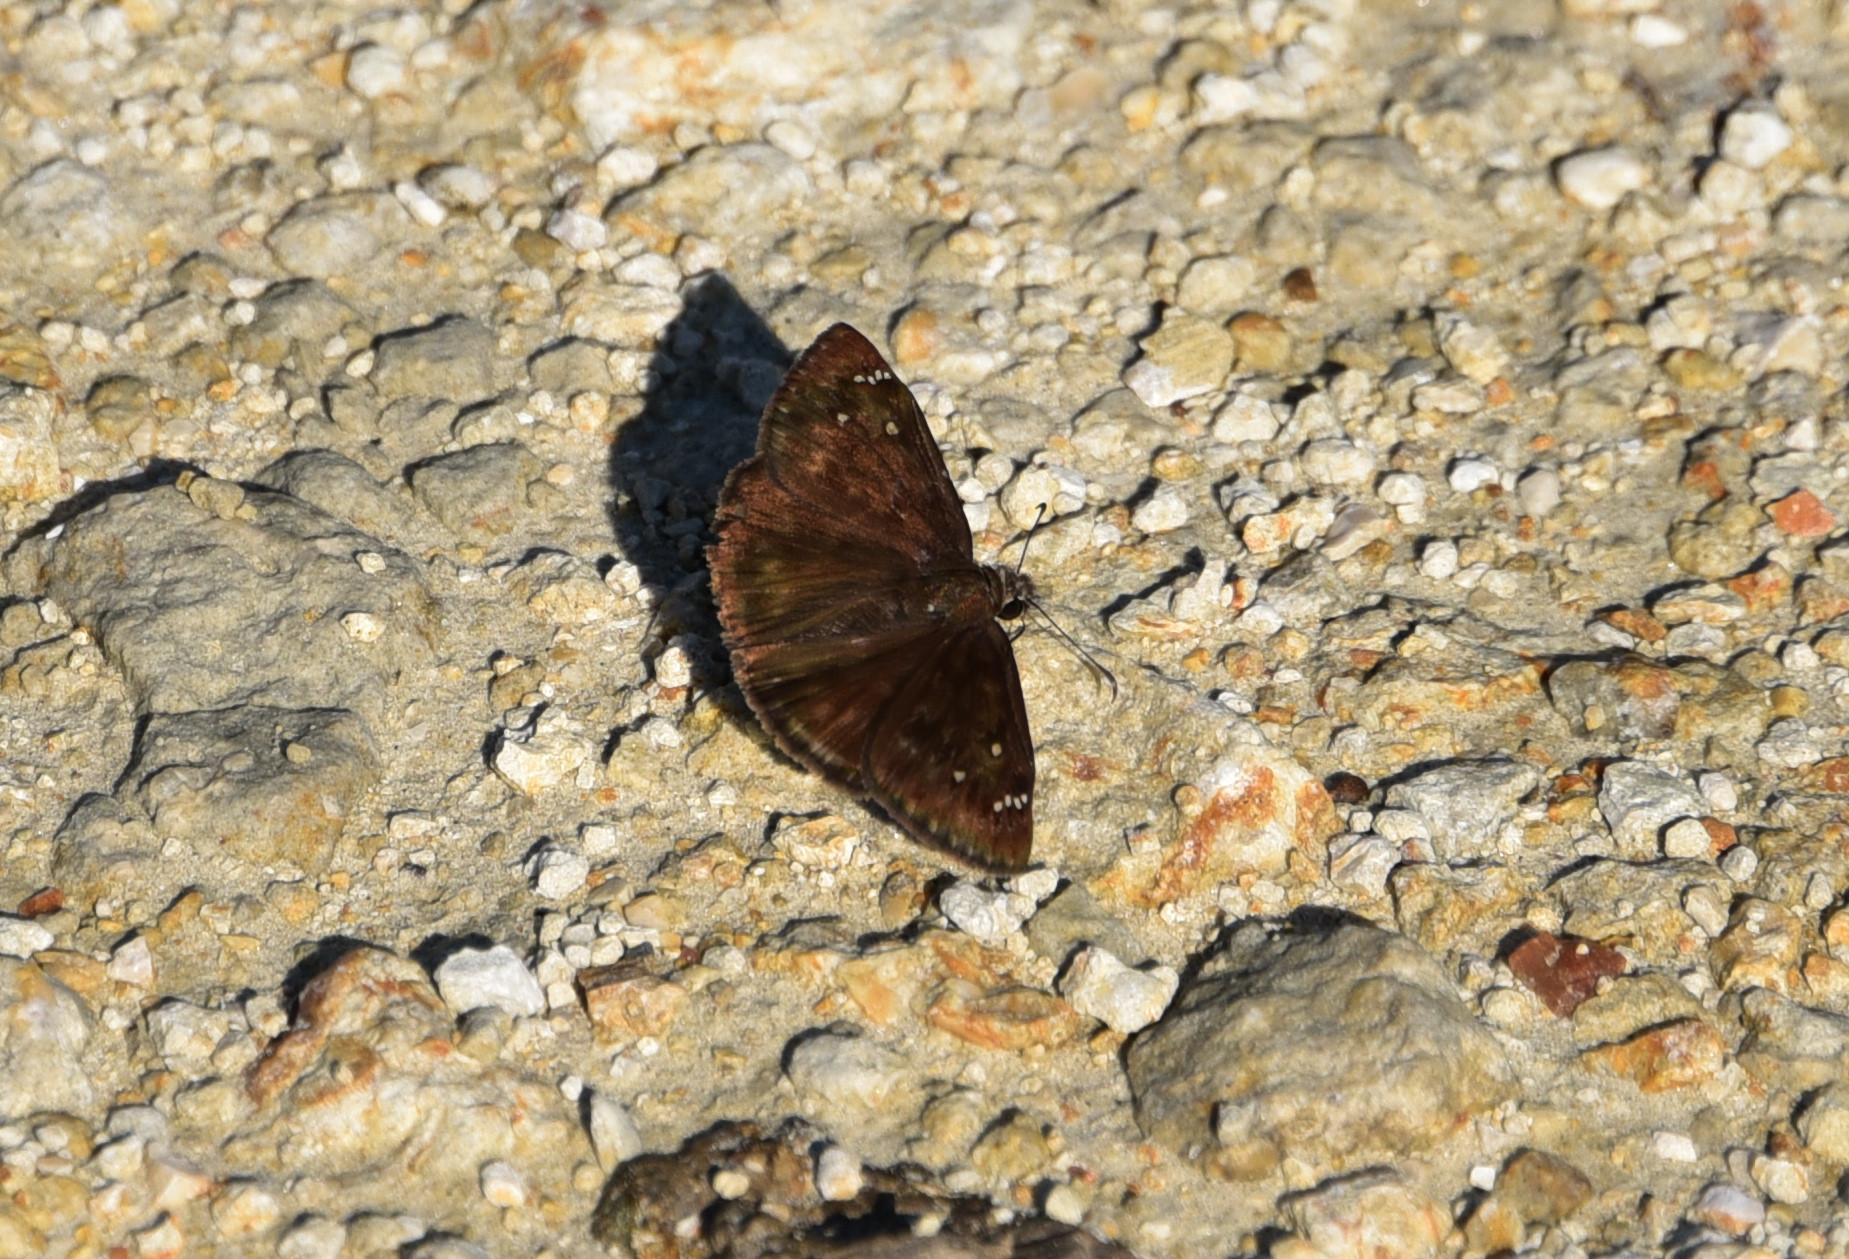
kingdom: Animalia
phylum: Arthropoda
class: Insecta
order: Lepidoptera
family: Hesperiidae
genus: Erynnis
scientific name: Erynnis horatius
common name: Horace's duskywing
